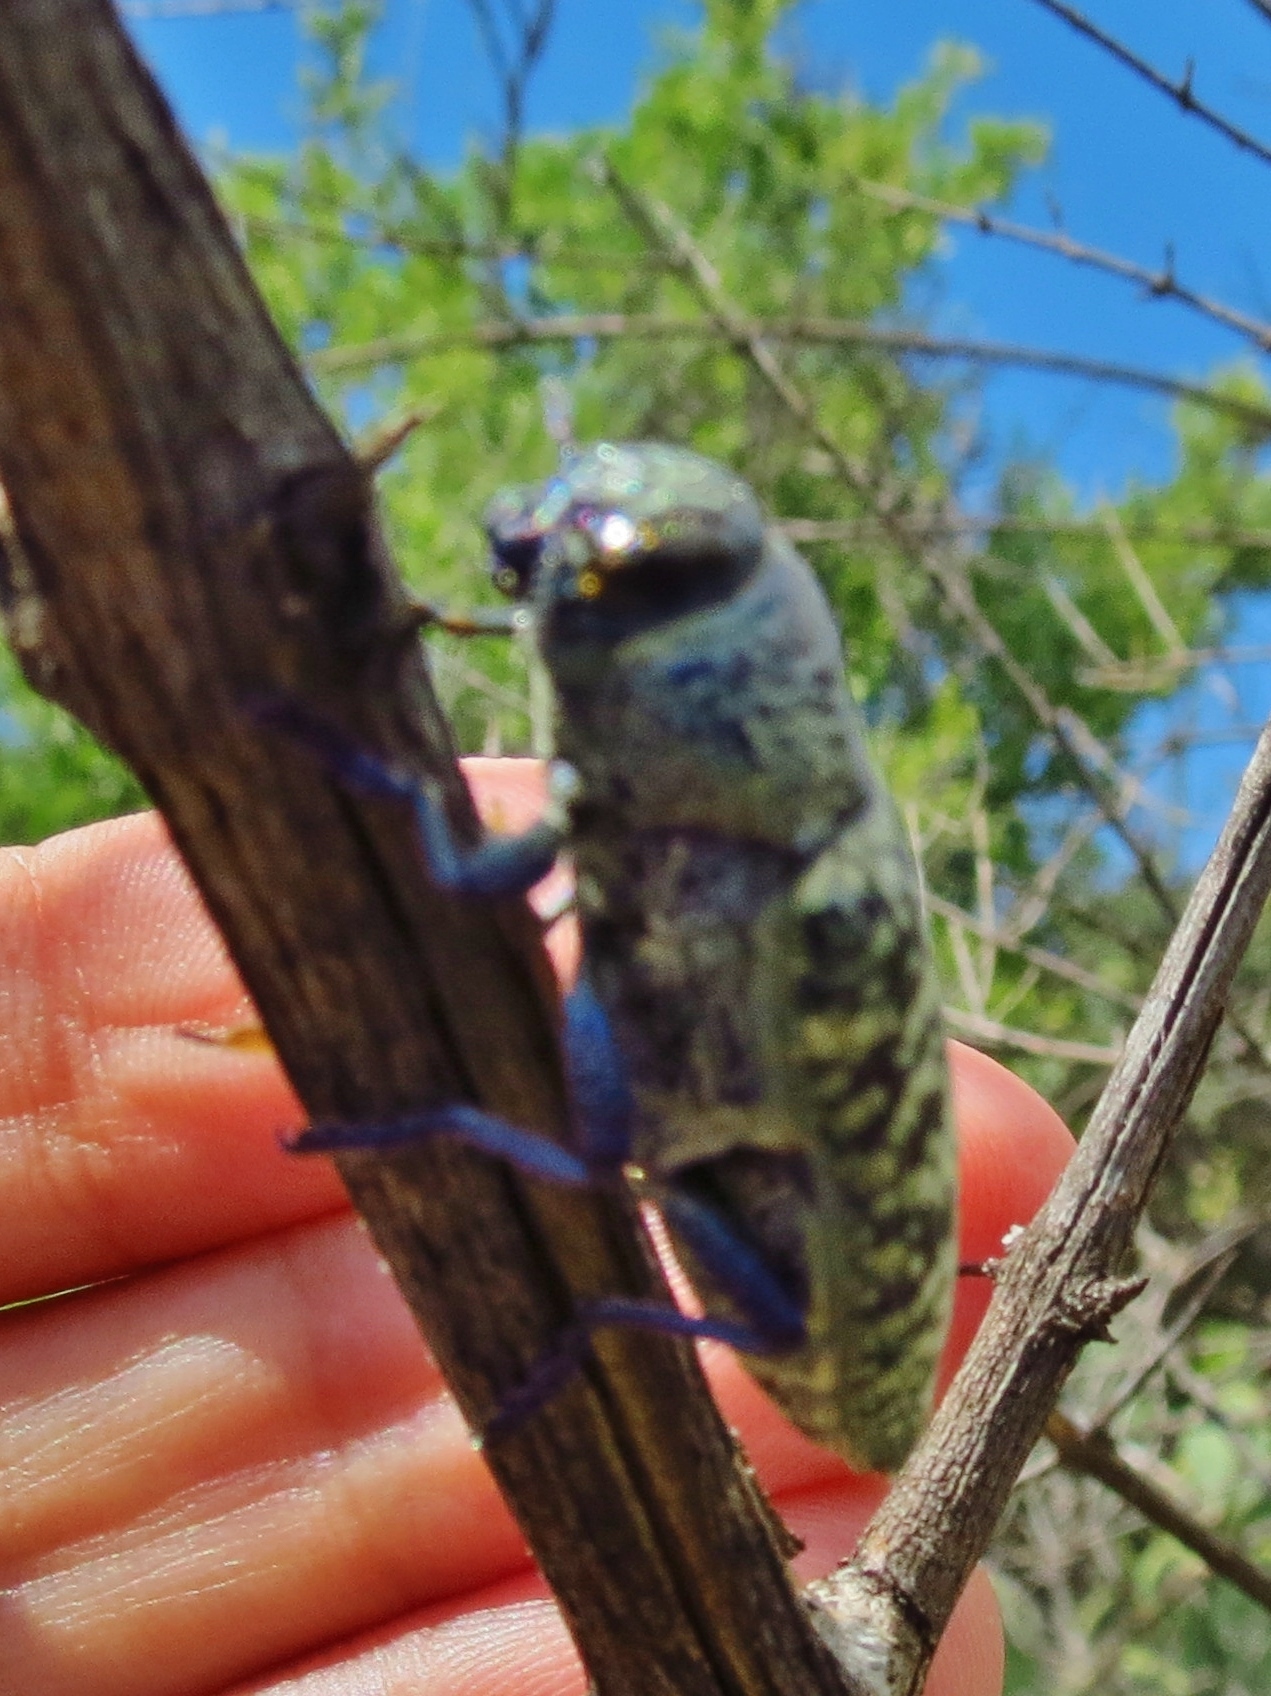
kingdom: Animalia
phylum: Arthropoda
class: Insecta
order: Coleoptera
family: Buprestidae
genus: Lampetis
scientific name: Lampetis drummondi
